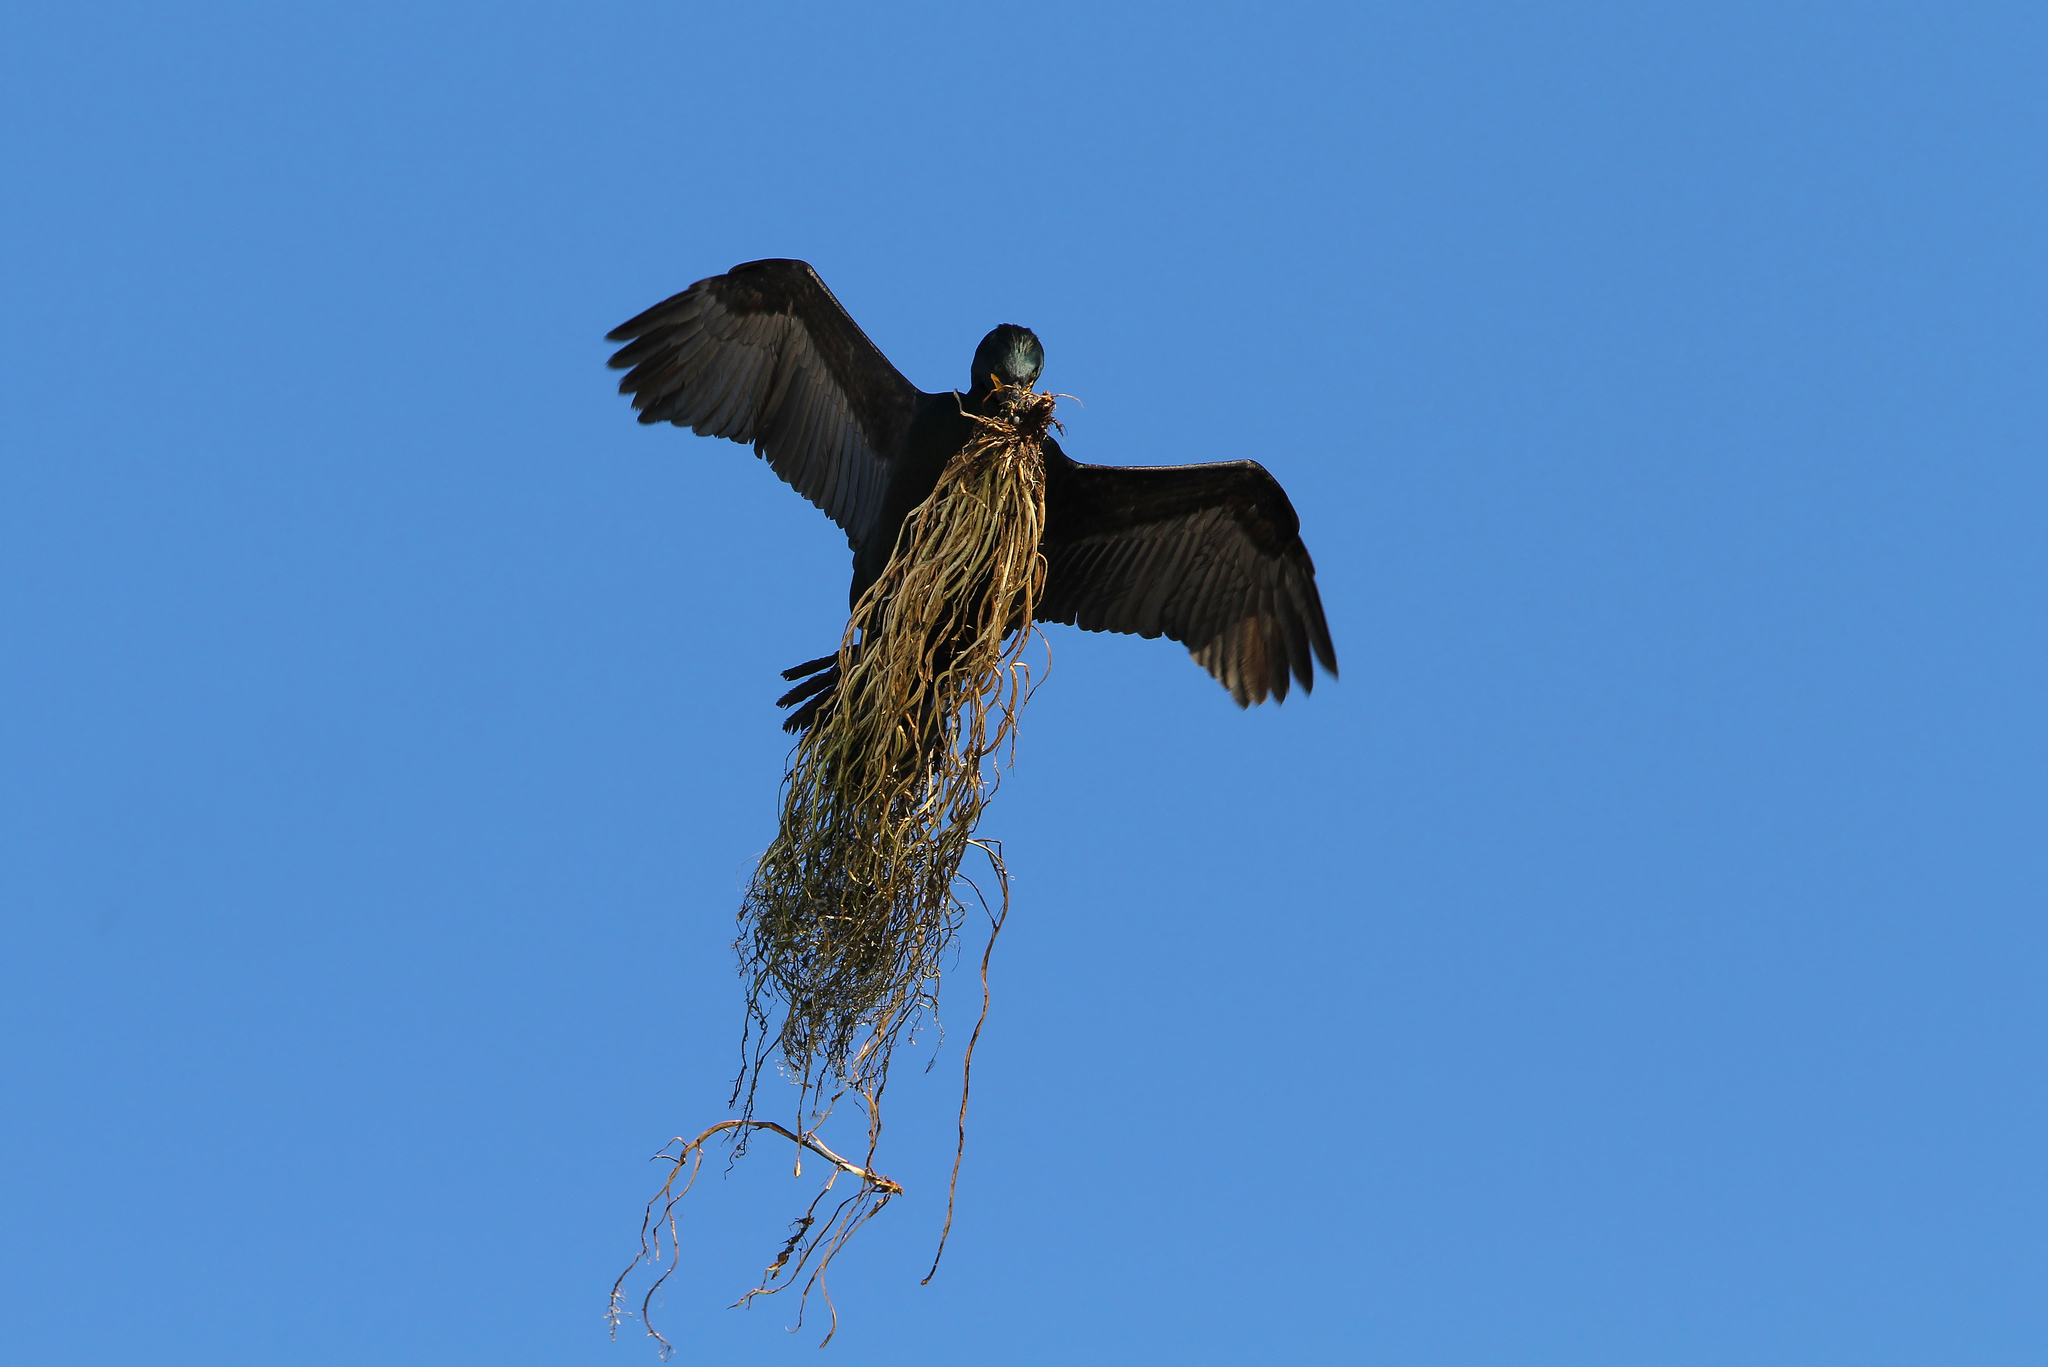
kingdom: Animalia
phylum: Chordata
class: Aves
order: Suliformes
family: Phalacrocoracidae
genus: Phalacrocorax
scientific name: Phalacrocorax aristotelis
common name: European shag
